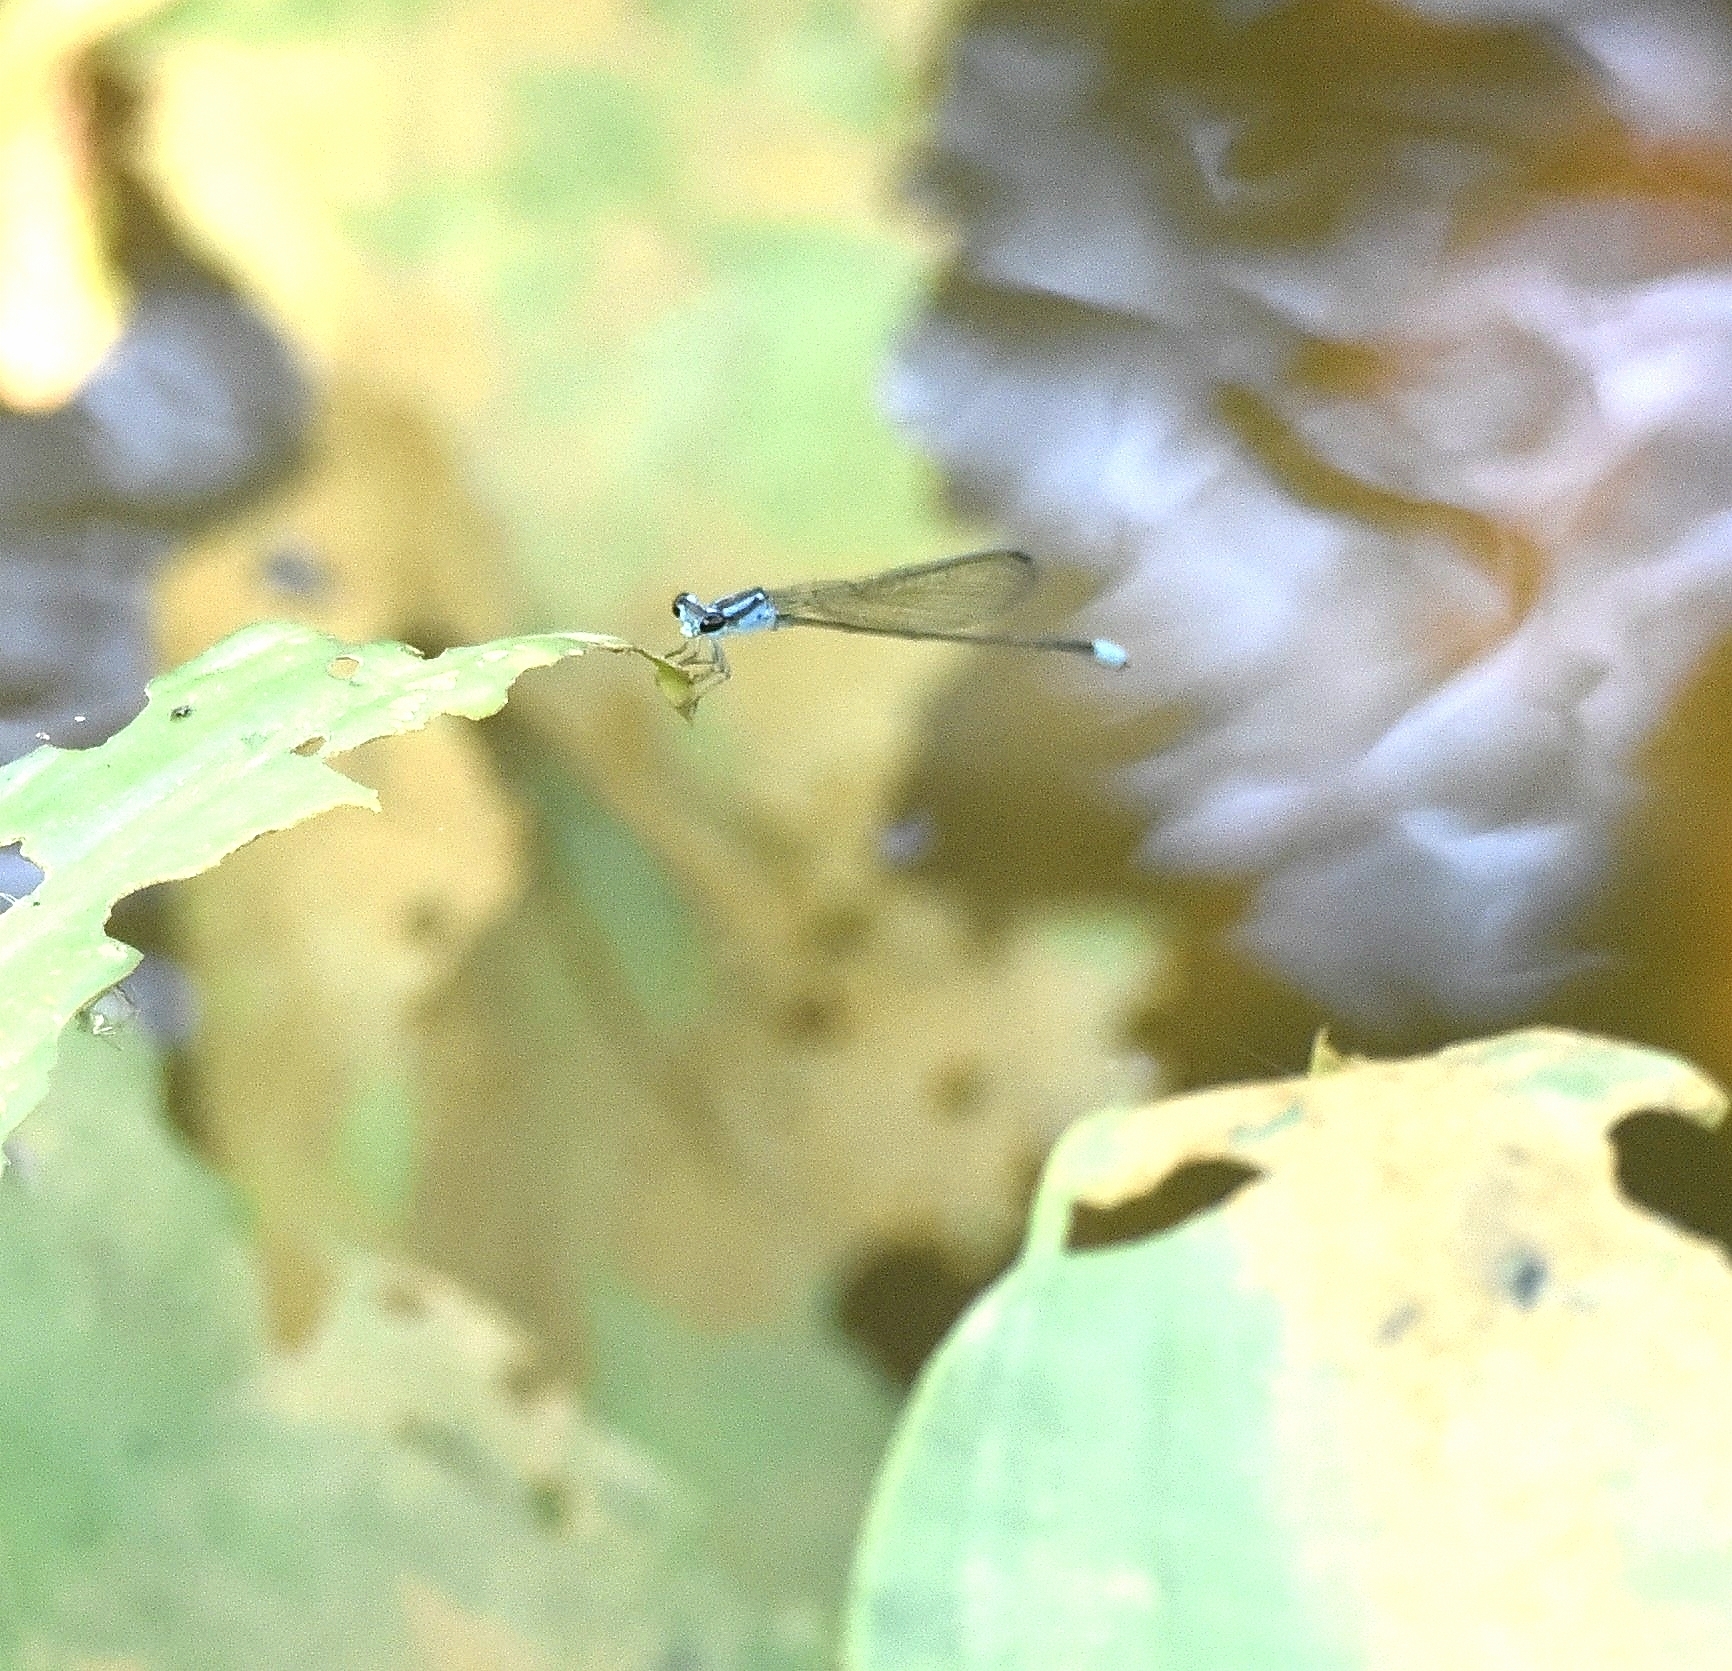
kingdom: Animalia
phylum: Arthropoda
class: Insecta
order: Odonata
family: Coenagrionidae
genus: Archibasis
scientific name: Archibasis oscillans
